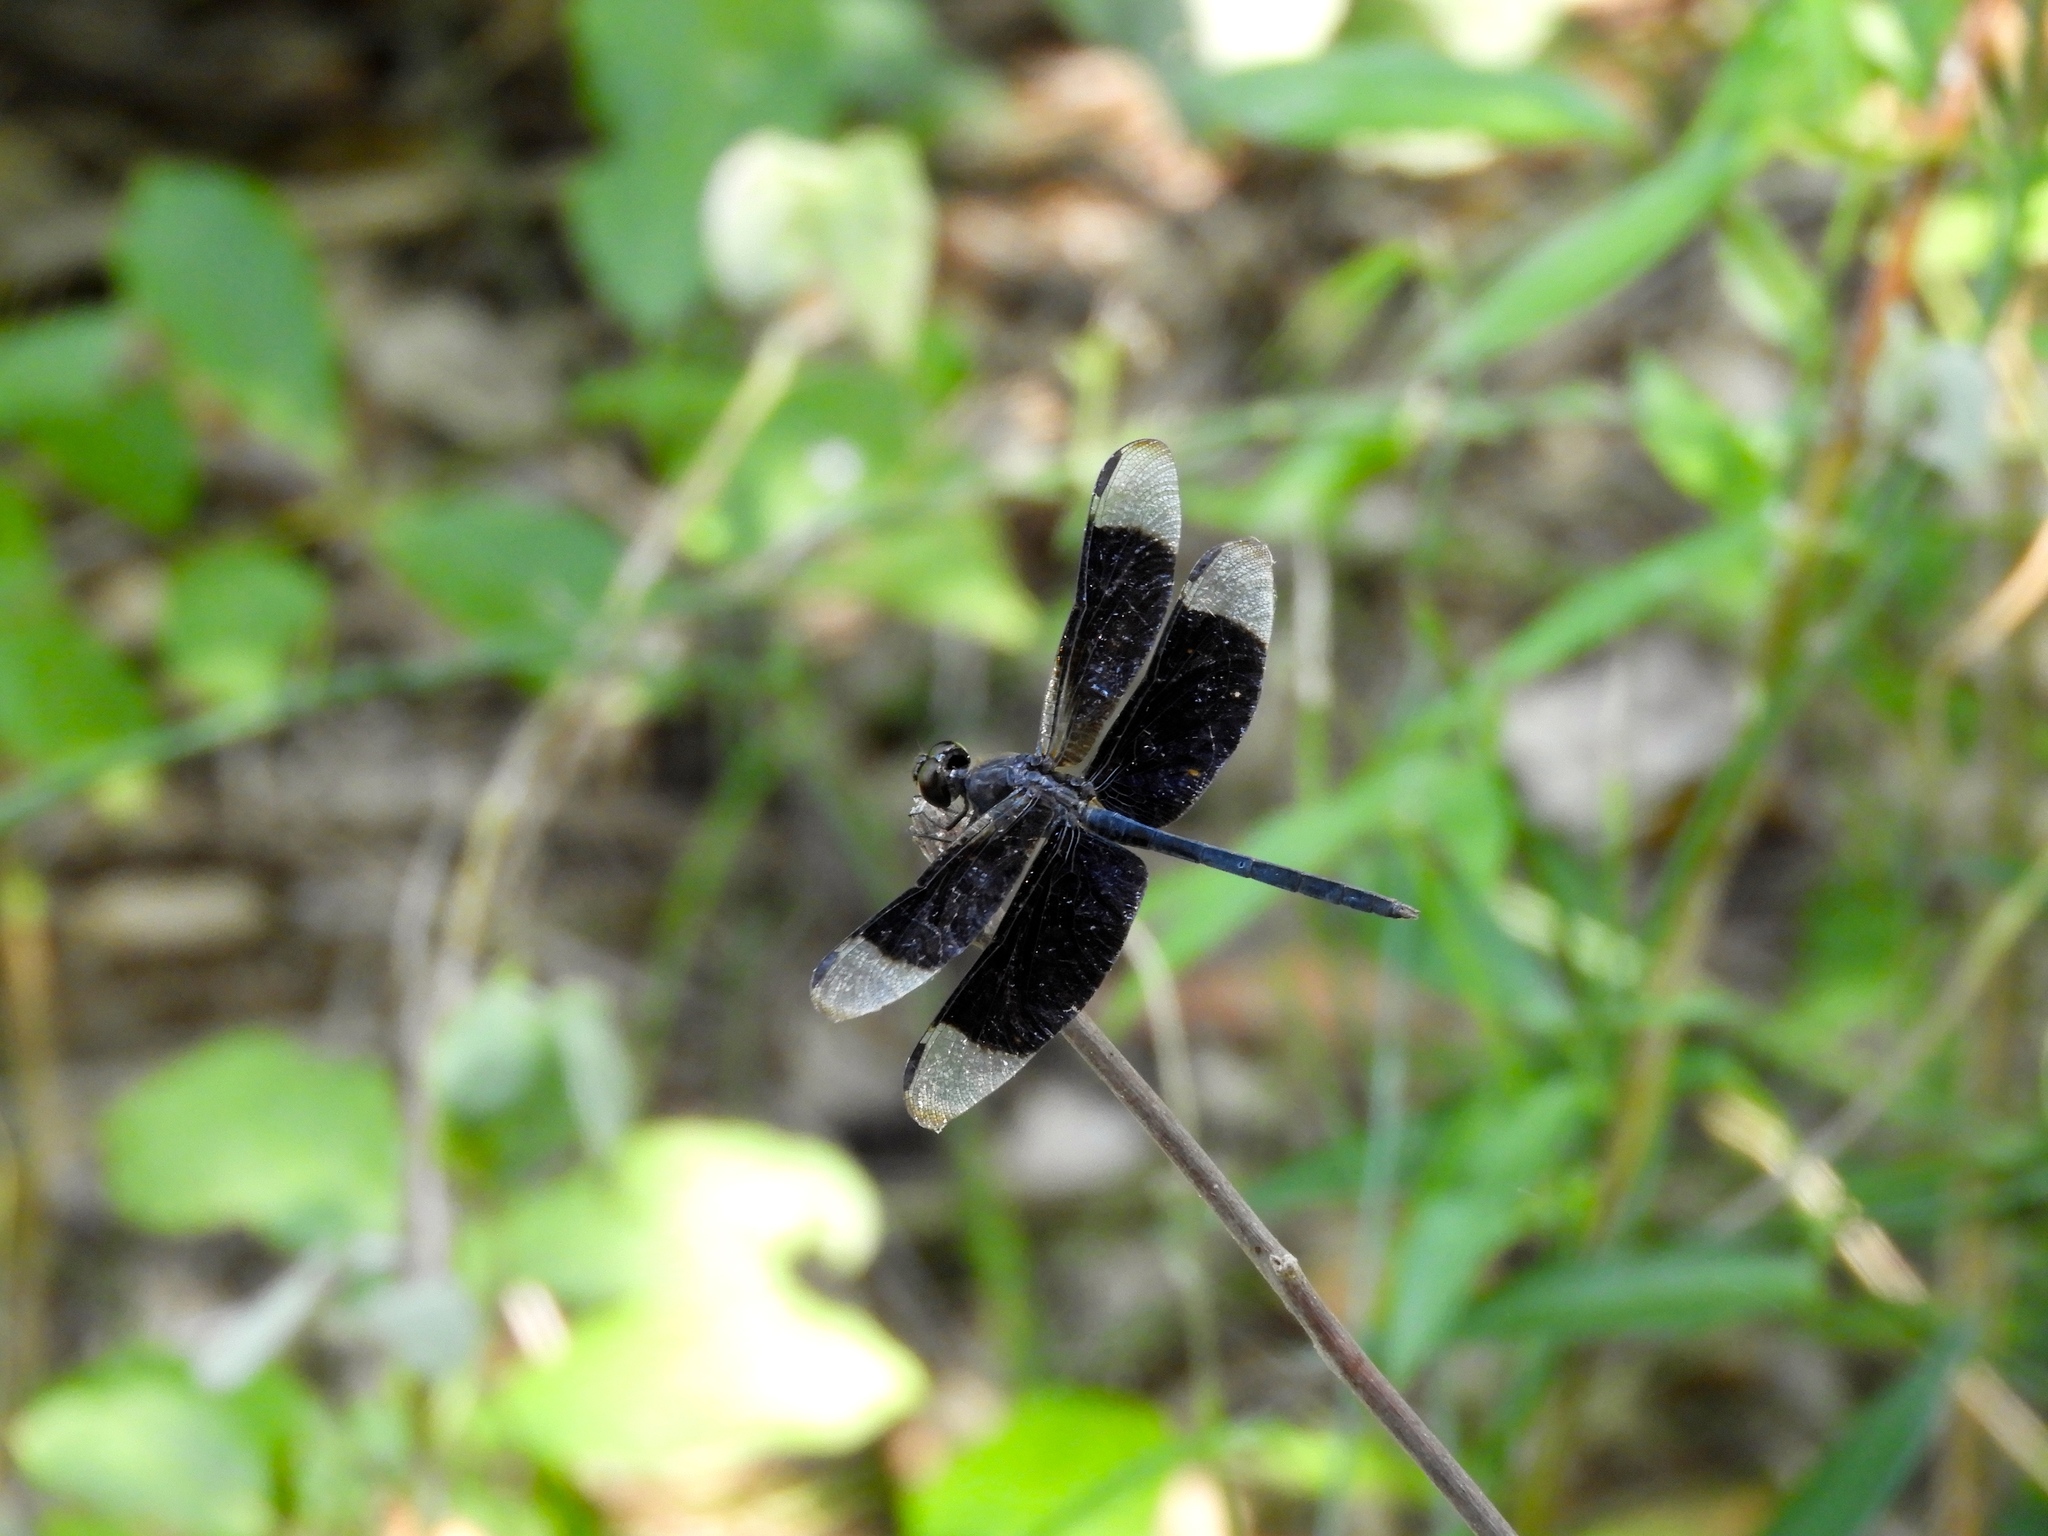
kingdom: Animalia
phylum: Arthropoda
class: Insecta
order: Odonata
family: Libellulidae
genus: Erythrodiplax
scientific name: Erythrodiplax funerea
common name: Black-winged dragonlet
